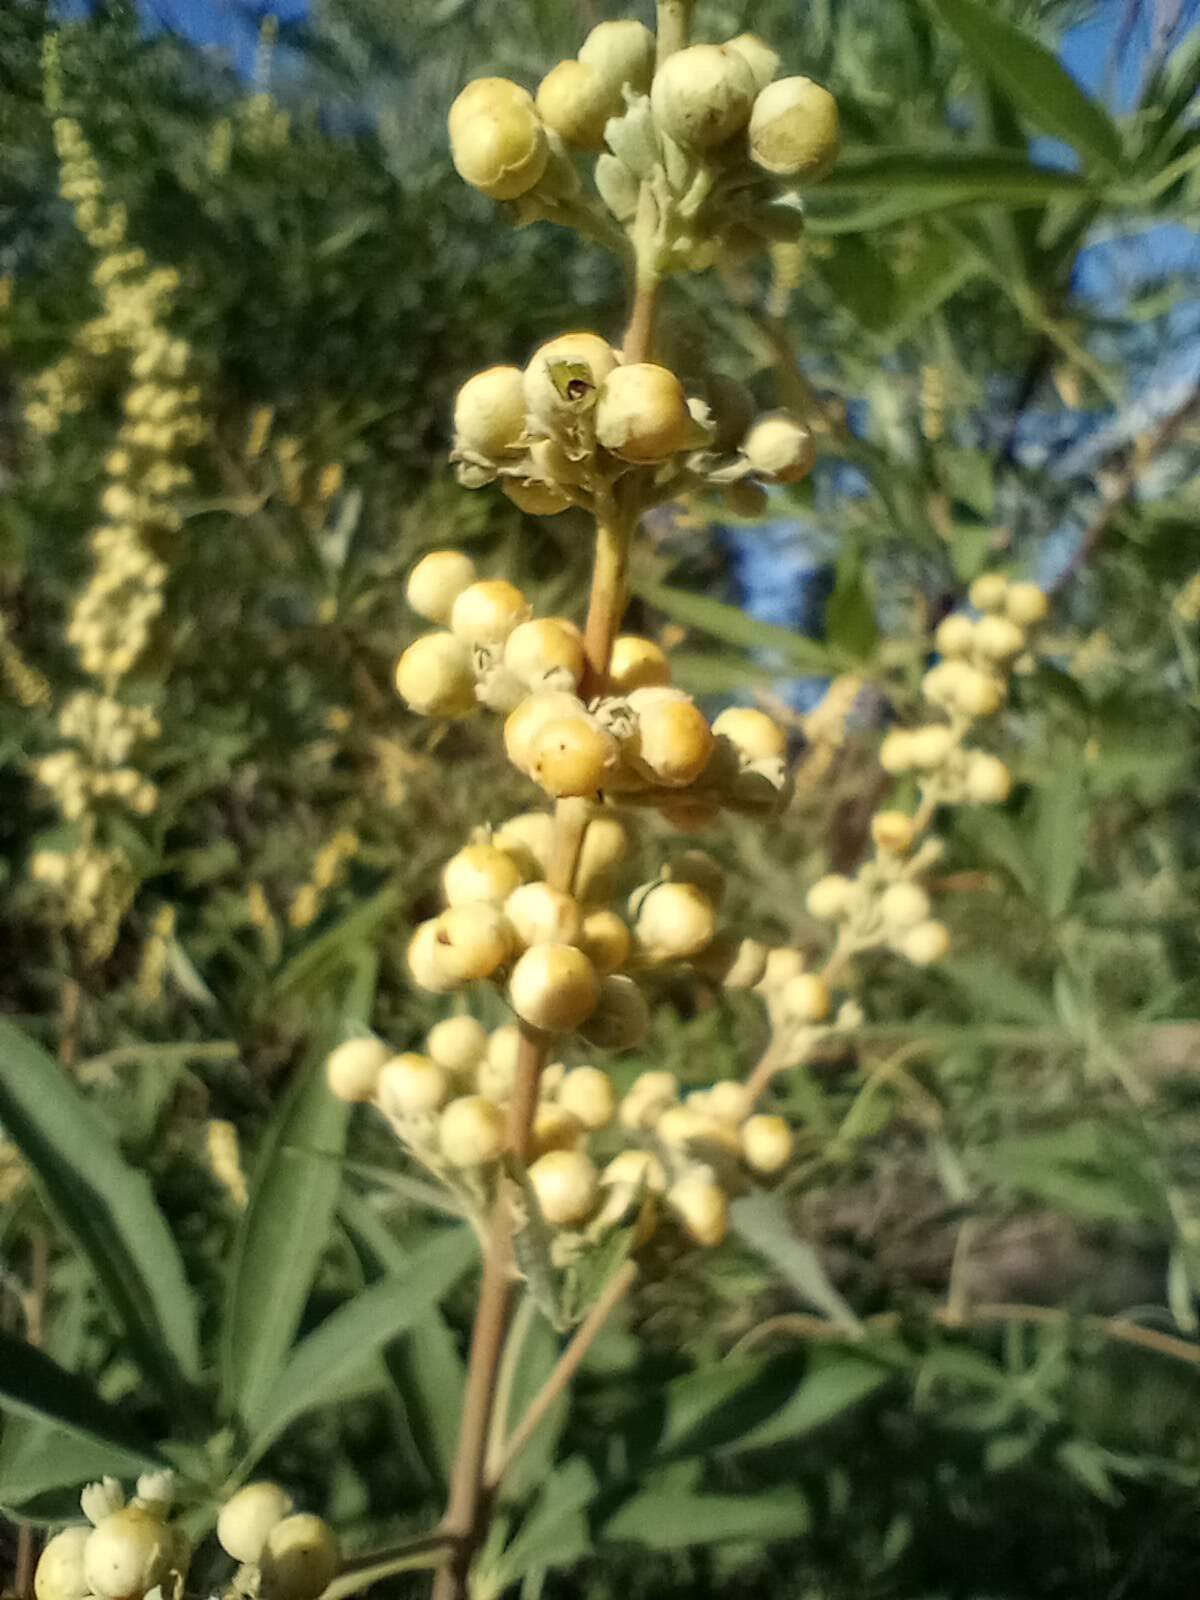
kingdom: Plantae
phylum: Tracheophyta
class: Magnoliopsida
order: Lamiales
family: Lamiaceae
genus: Vitex
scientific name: Vitex agnus-castus
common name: Chasteberry
